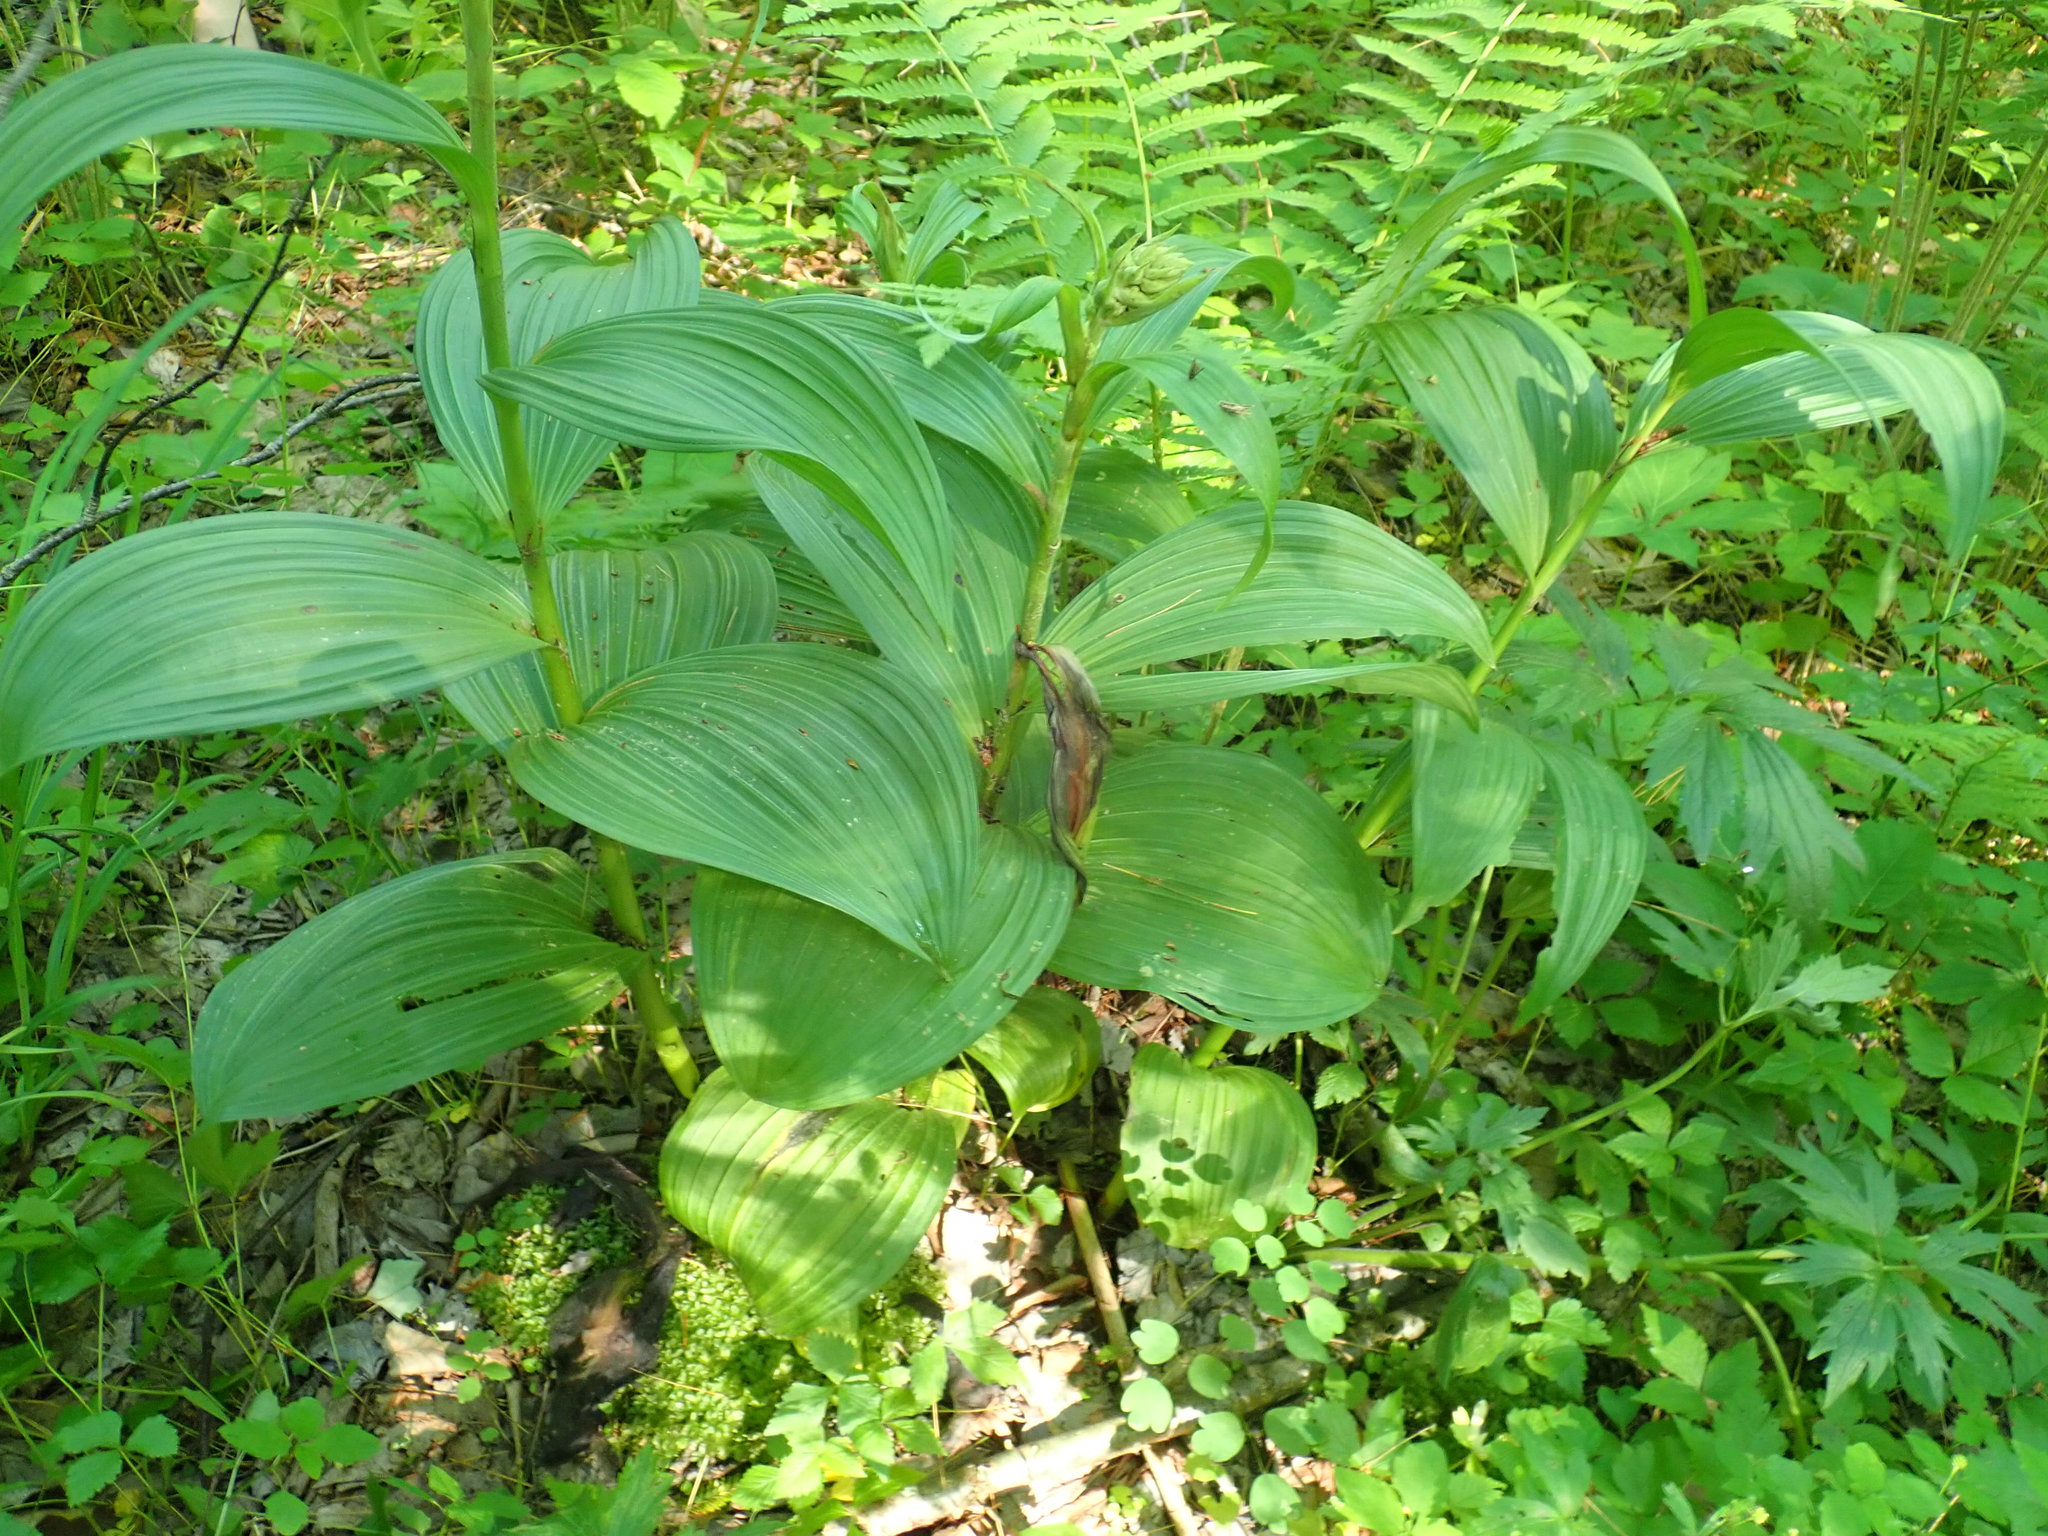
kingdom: Plantae
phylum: Tracheophyta
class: Liliopsida
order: Liliales
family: Melanthiaceae
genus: Veratrum
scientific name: Veratrum viride
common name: American false hellebore
